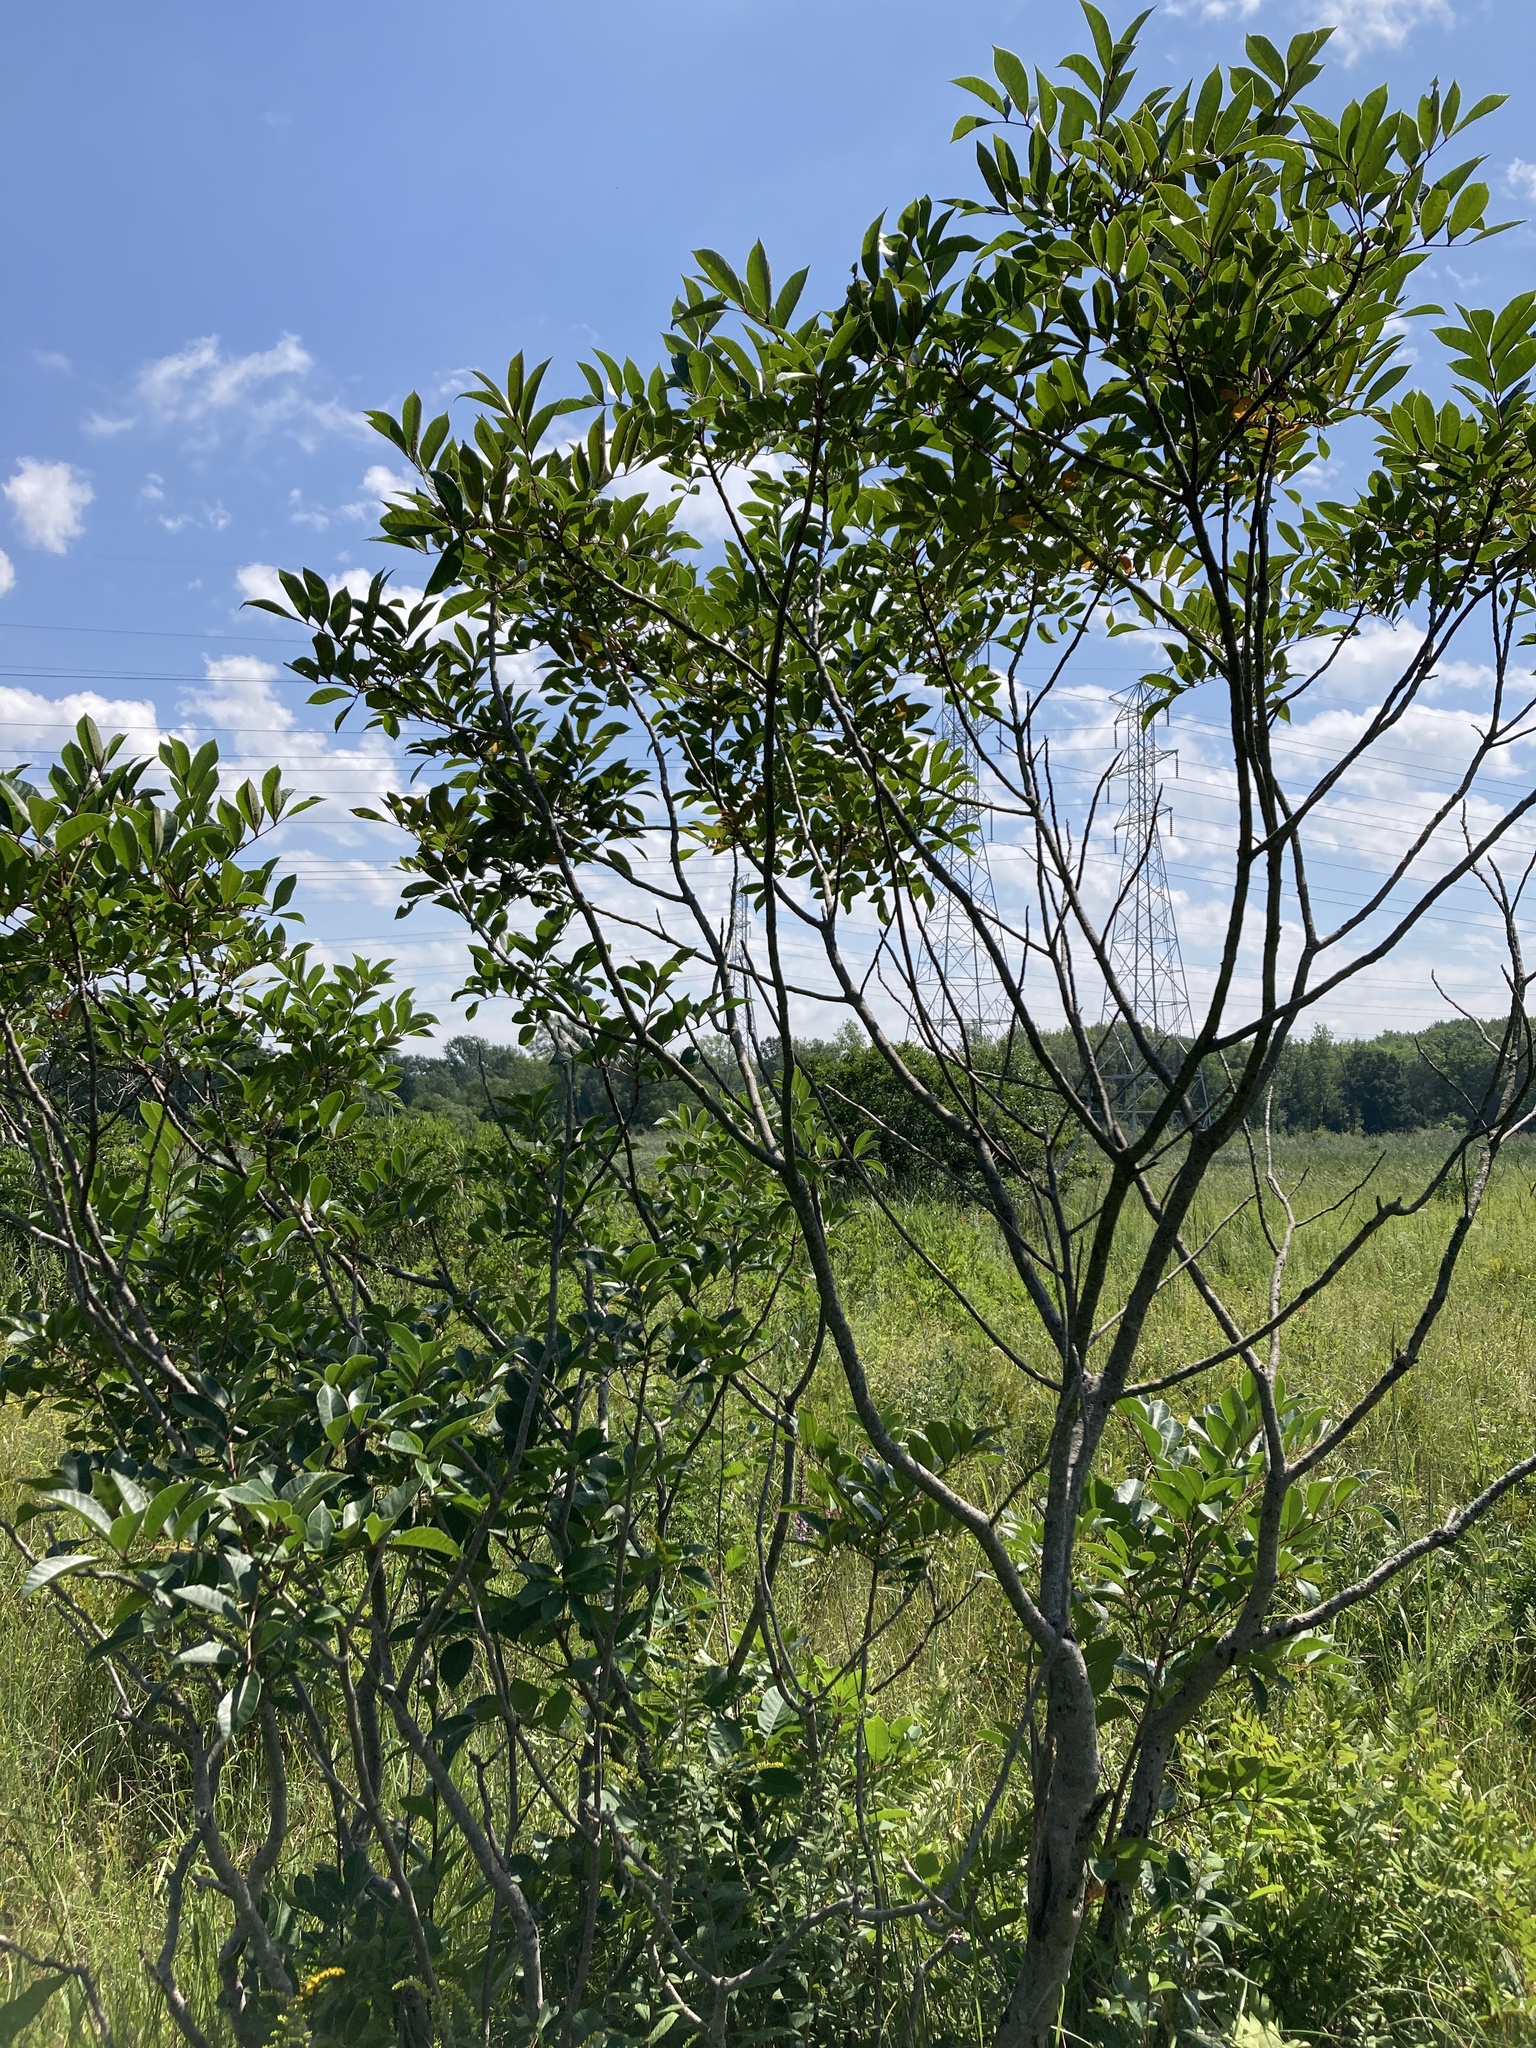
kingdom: Plantae
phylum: Tracheophyta
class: Magnoliopsida
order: Sapindales
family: Anacardiaceae
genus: Toxicodendron
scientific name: Toxicodendron vernix
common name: Poison sumac
